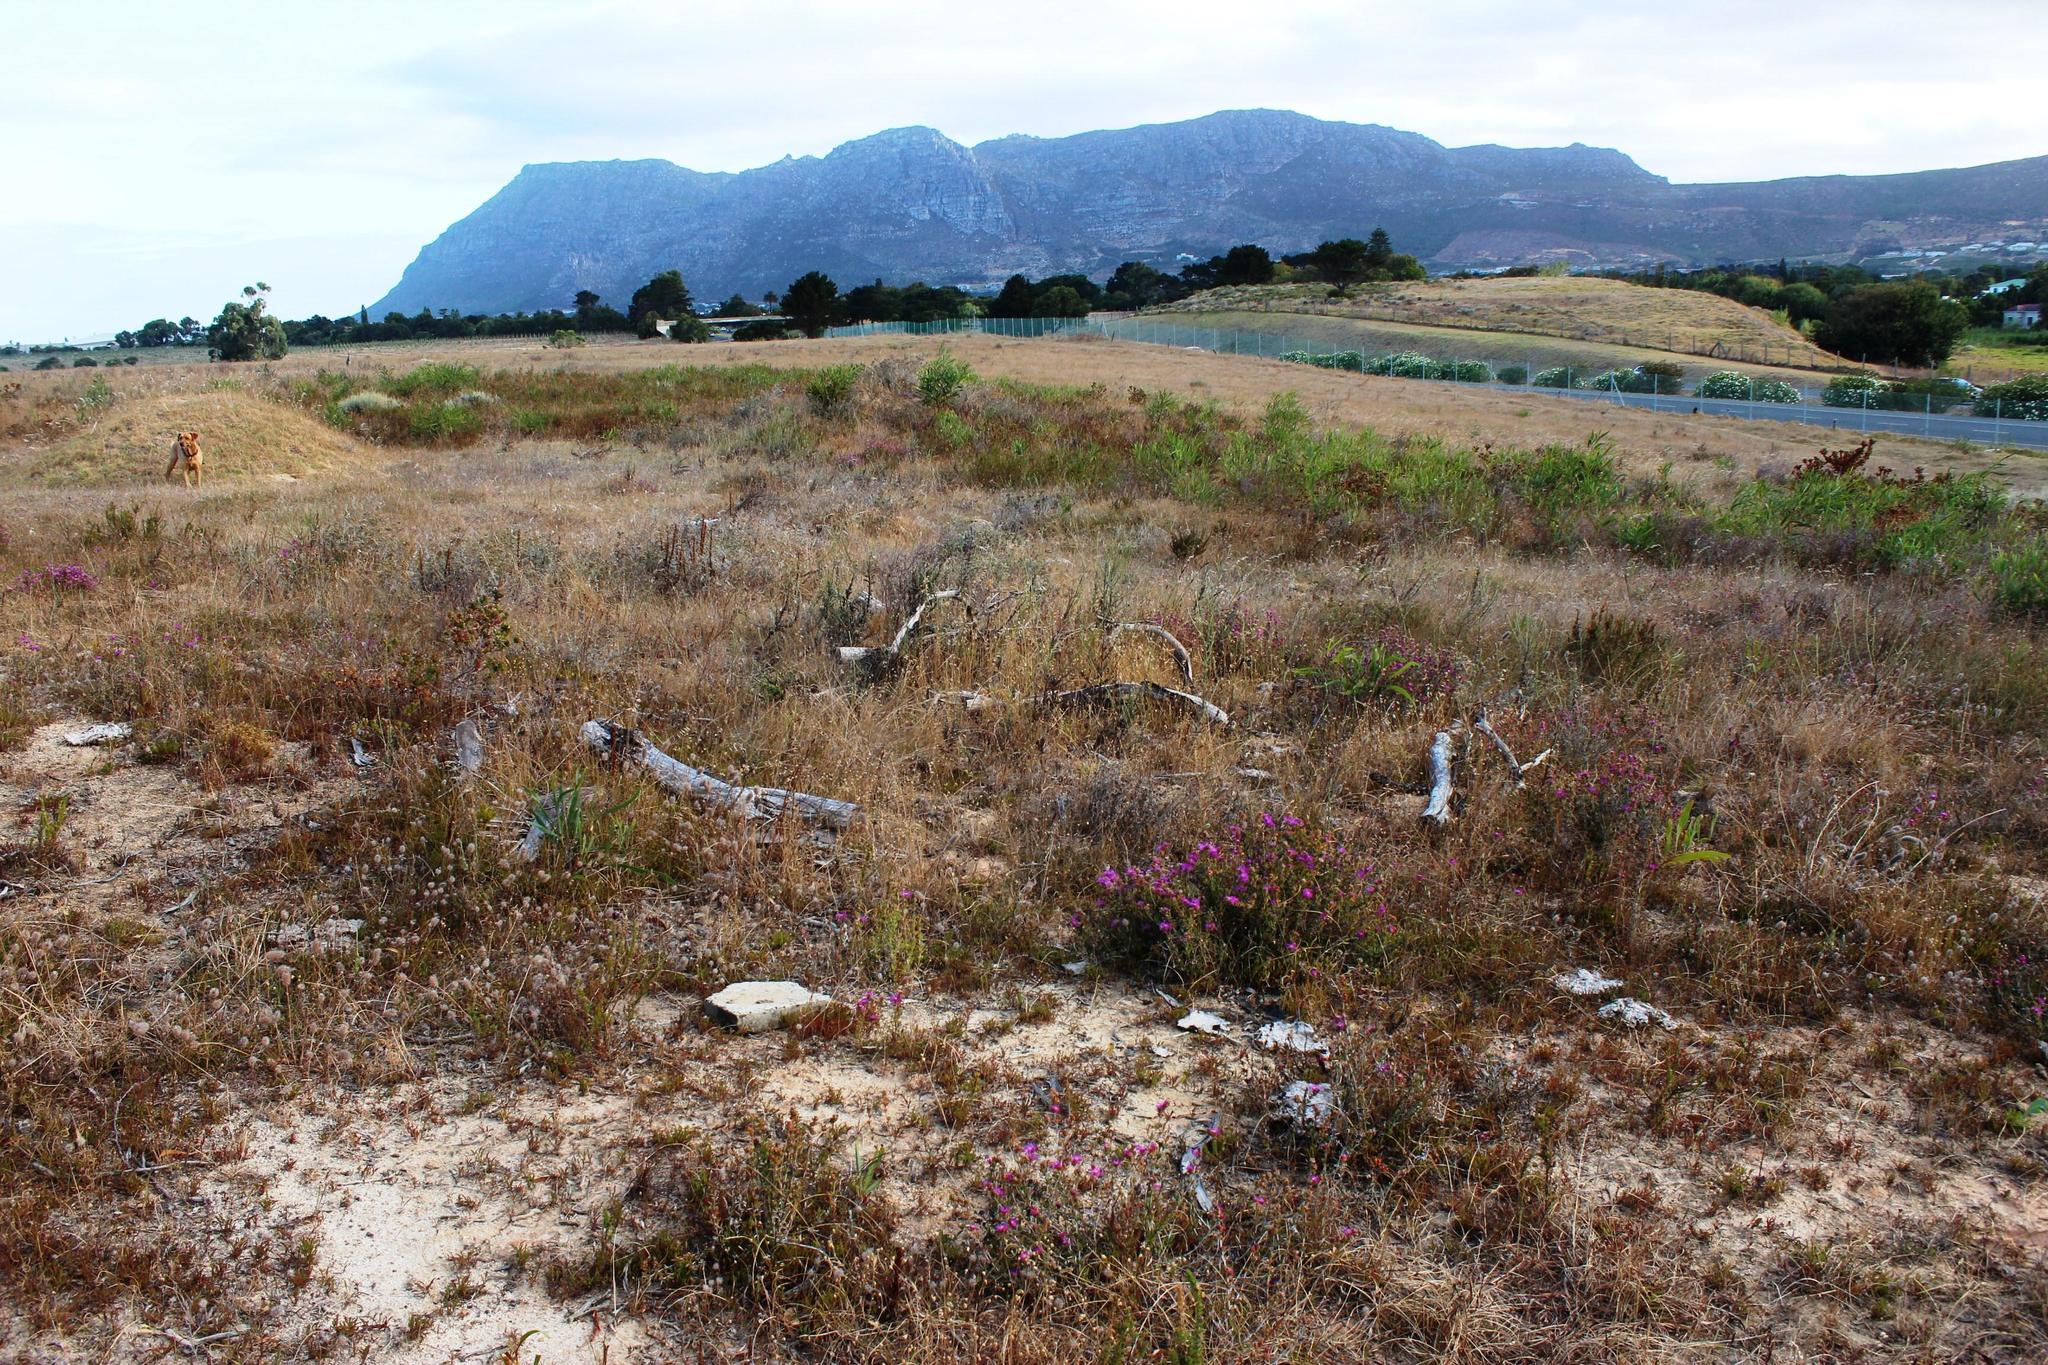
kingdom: Plantae
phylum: Tracheophyta
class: Magnoliopsida
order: Caryophyllales
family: Aizoaceae
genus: Erepsia
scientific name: Erepsia bracteata
